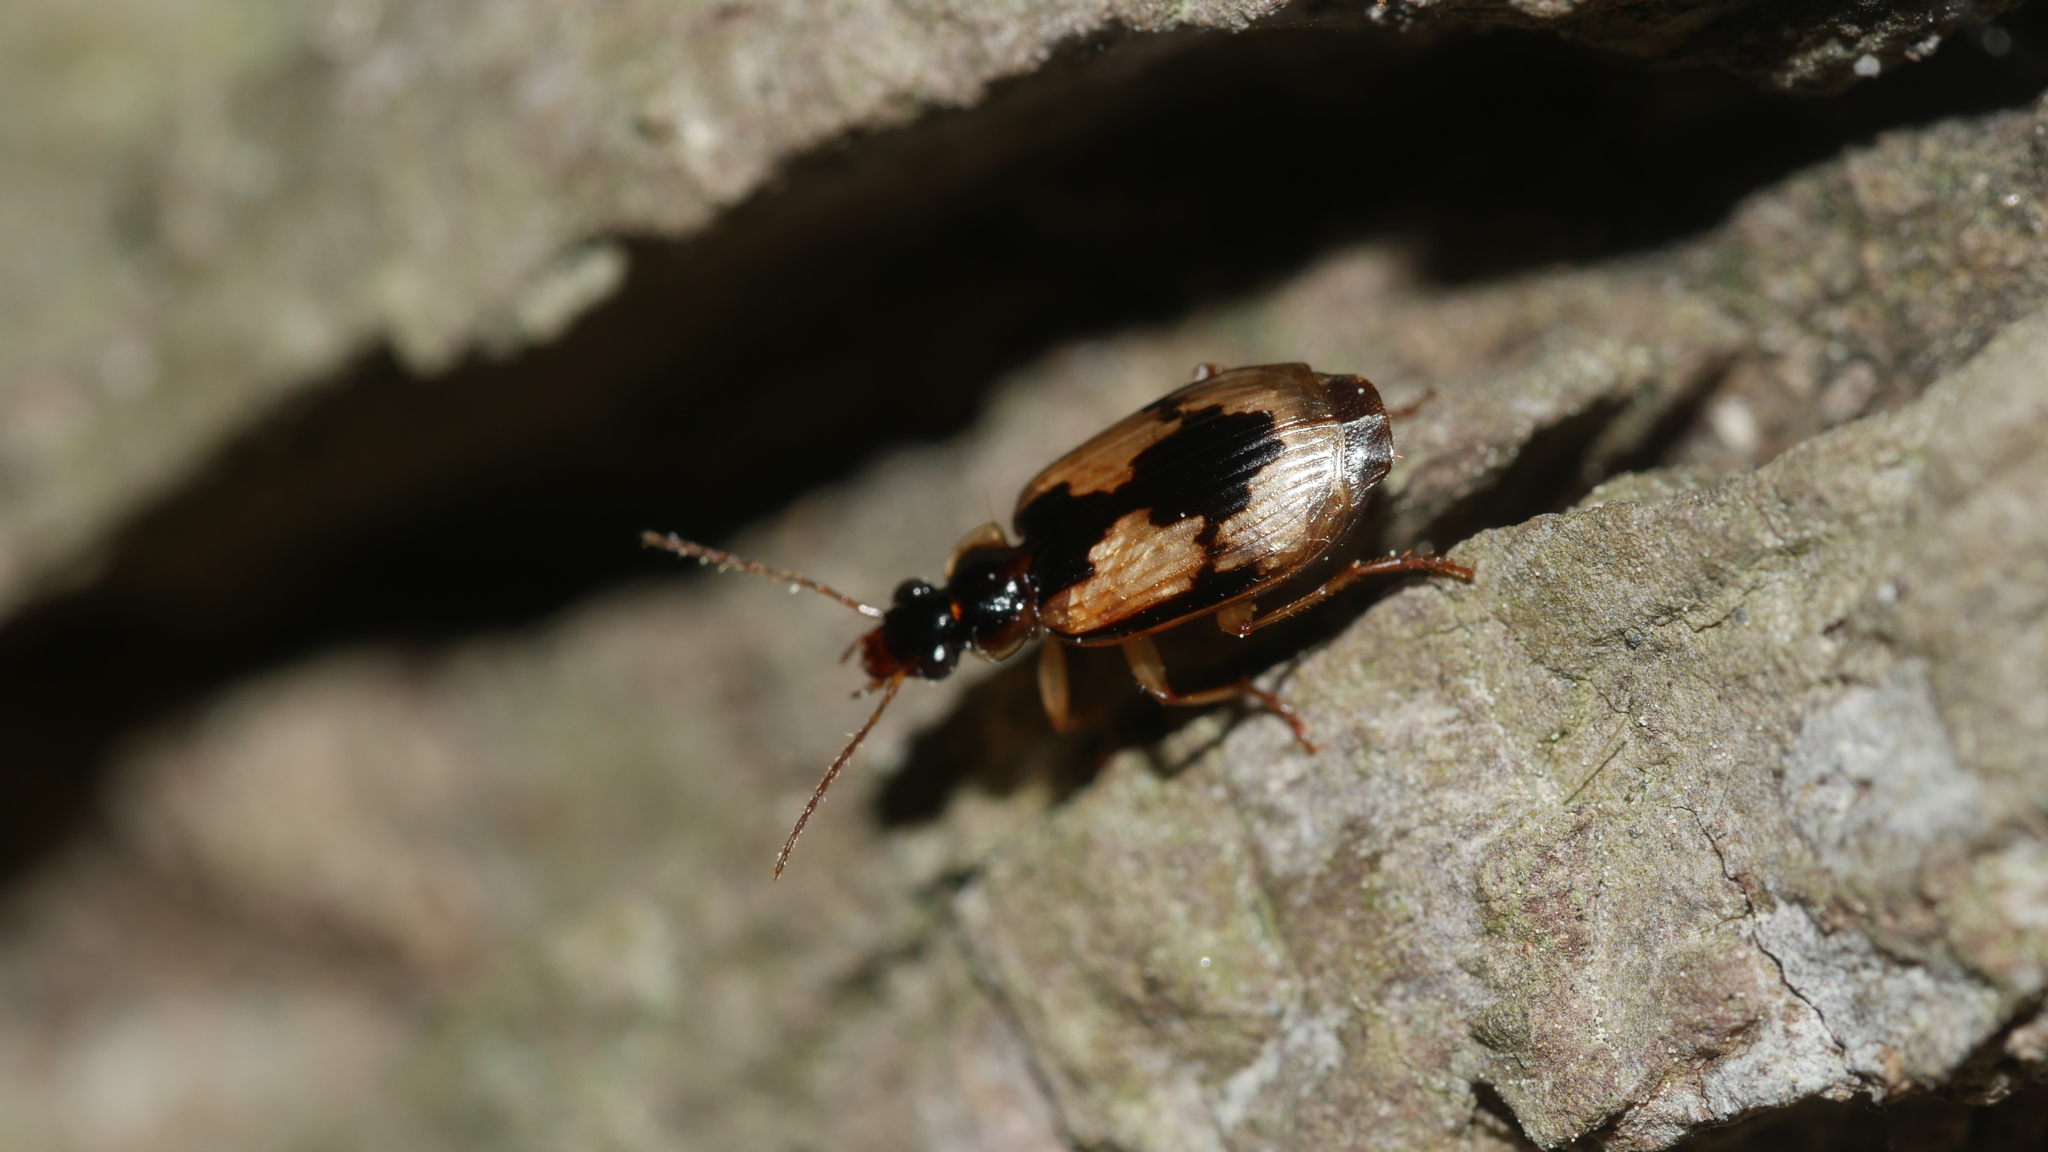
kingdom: Animalia
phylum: Arthropoda
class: Insecta
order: Coleoptera
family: Carabidae
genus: Lebia
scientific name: Lebia fuscata
